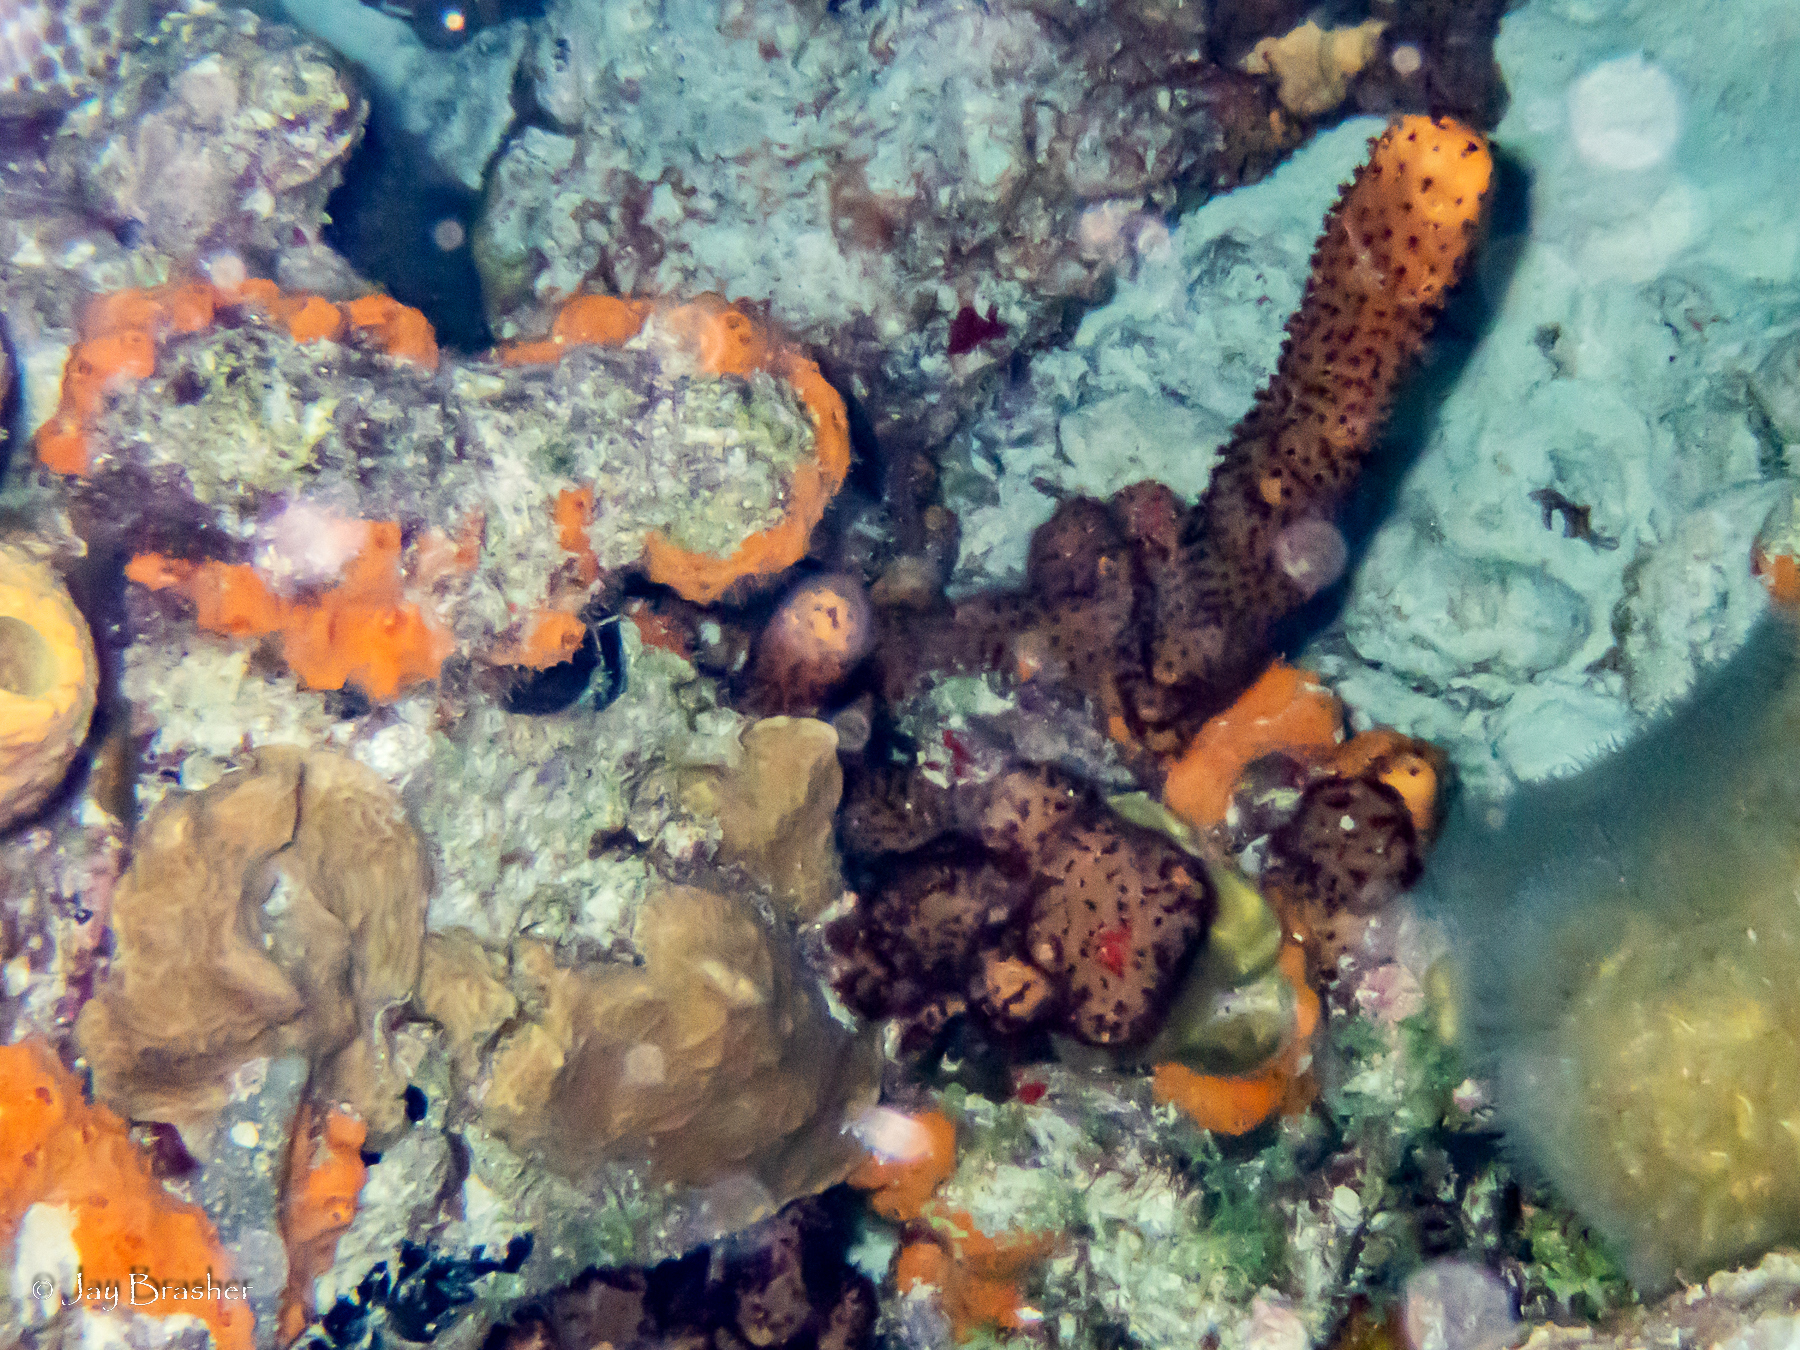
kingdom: Animalia
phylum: Cnidaria
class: Anthozoa
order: Zoantharia
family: Parazoanthidae
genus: Bergia
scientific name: Bergia puertoricense
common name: Maroon sponge zoanthid
